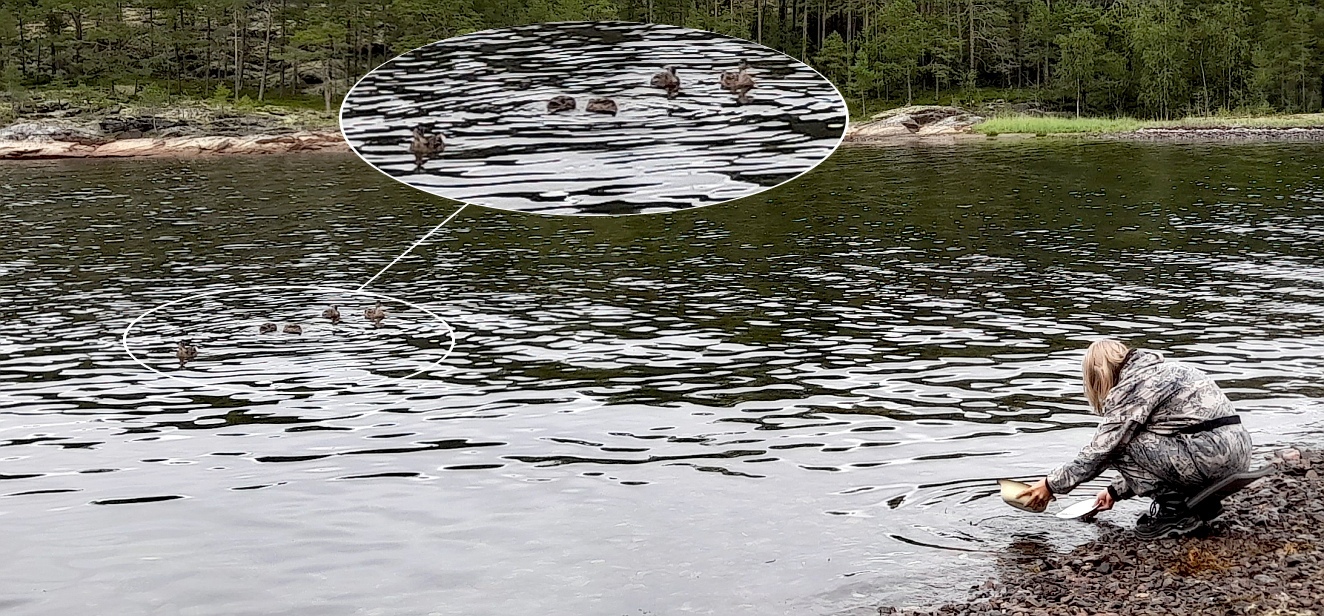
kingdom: Animalia
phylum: Chordata
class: Aves
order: Anseriformes
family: Anatidae
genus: Anas
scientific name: Anas platyrhynchos
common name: Mallard
